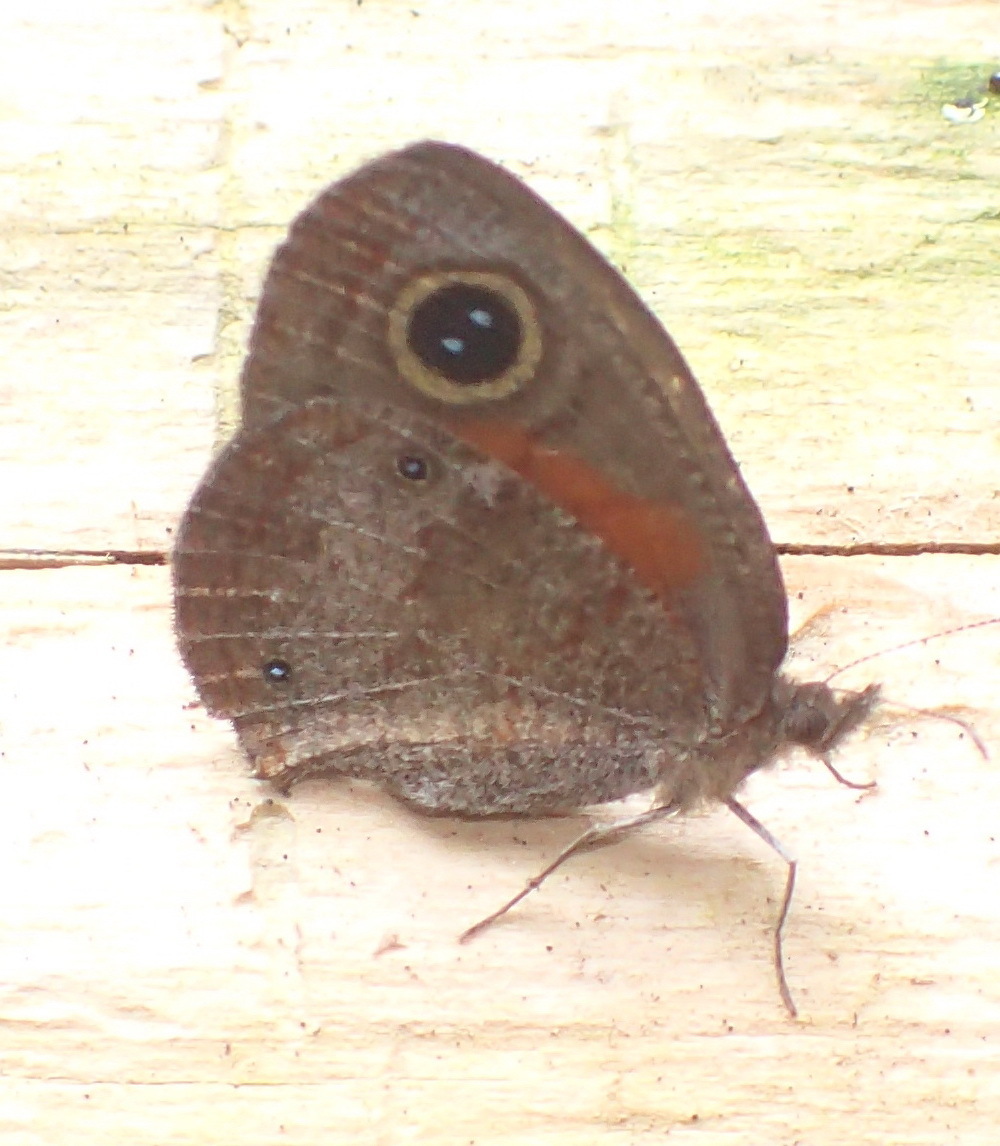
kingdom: Animalia
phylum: Arthropoda
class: Insecta
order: Lepidoptera
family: Nymphalidae
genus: Cassionympha
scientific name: Cassionympha cassius
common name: Rainforest brown
